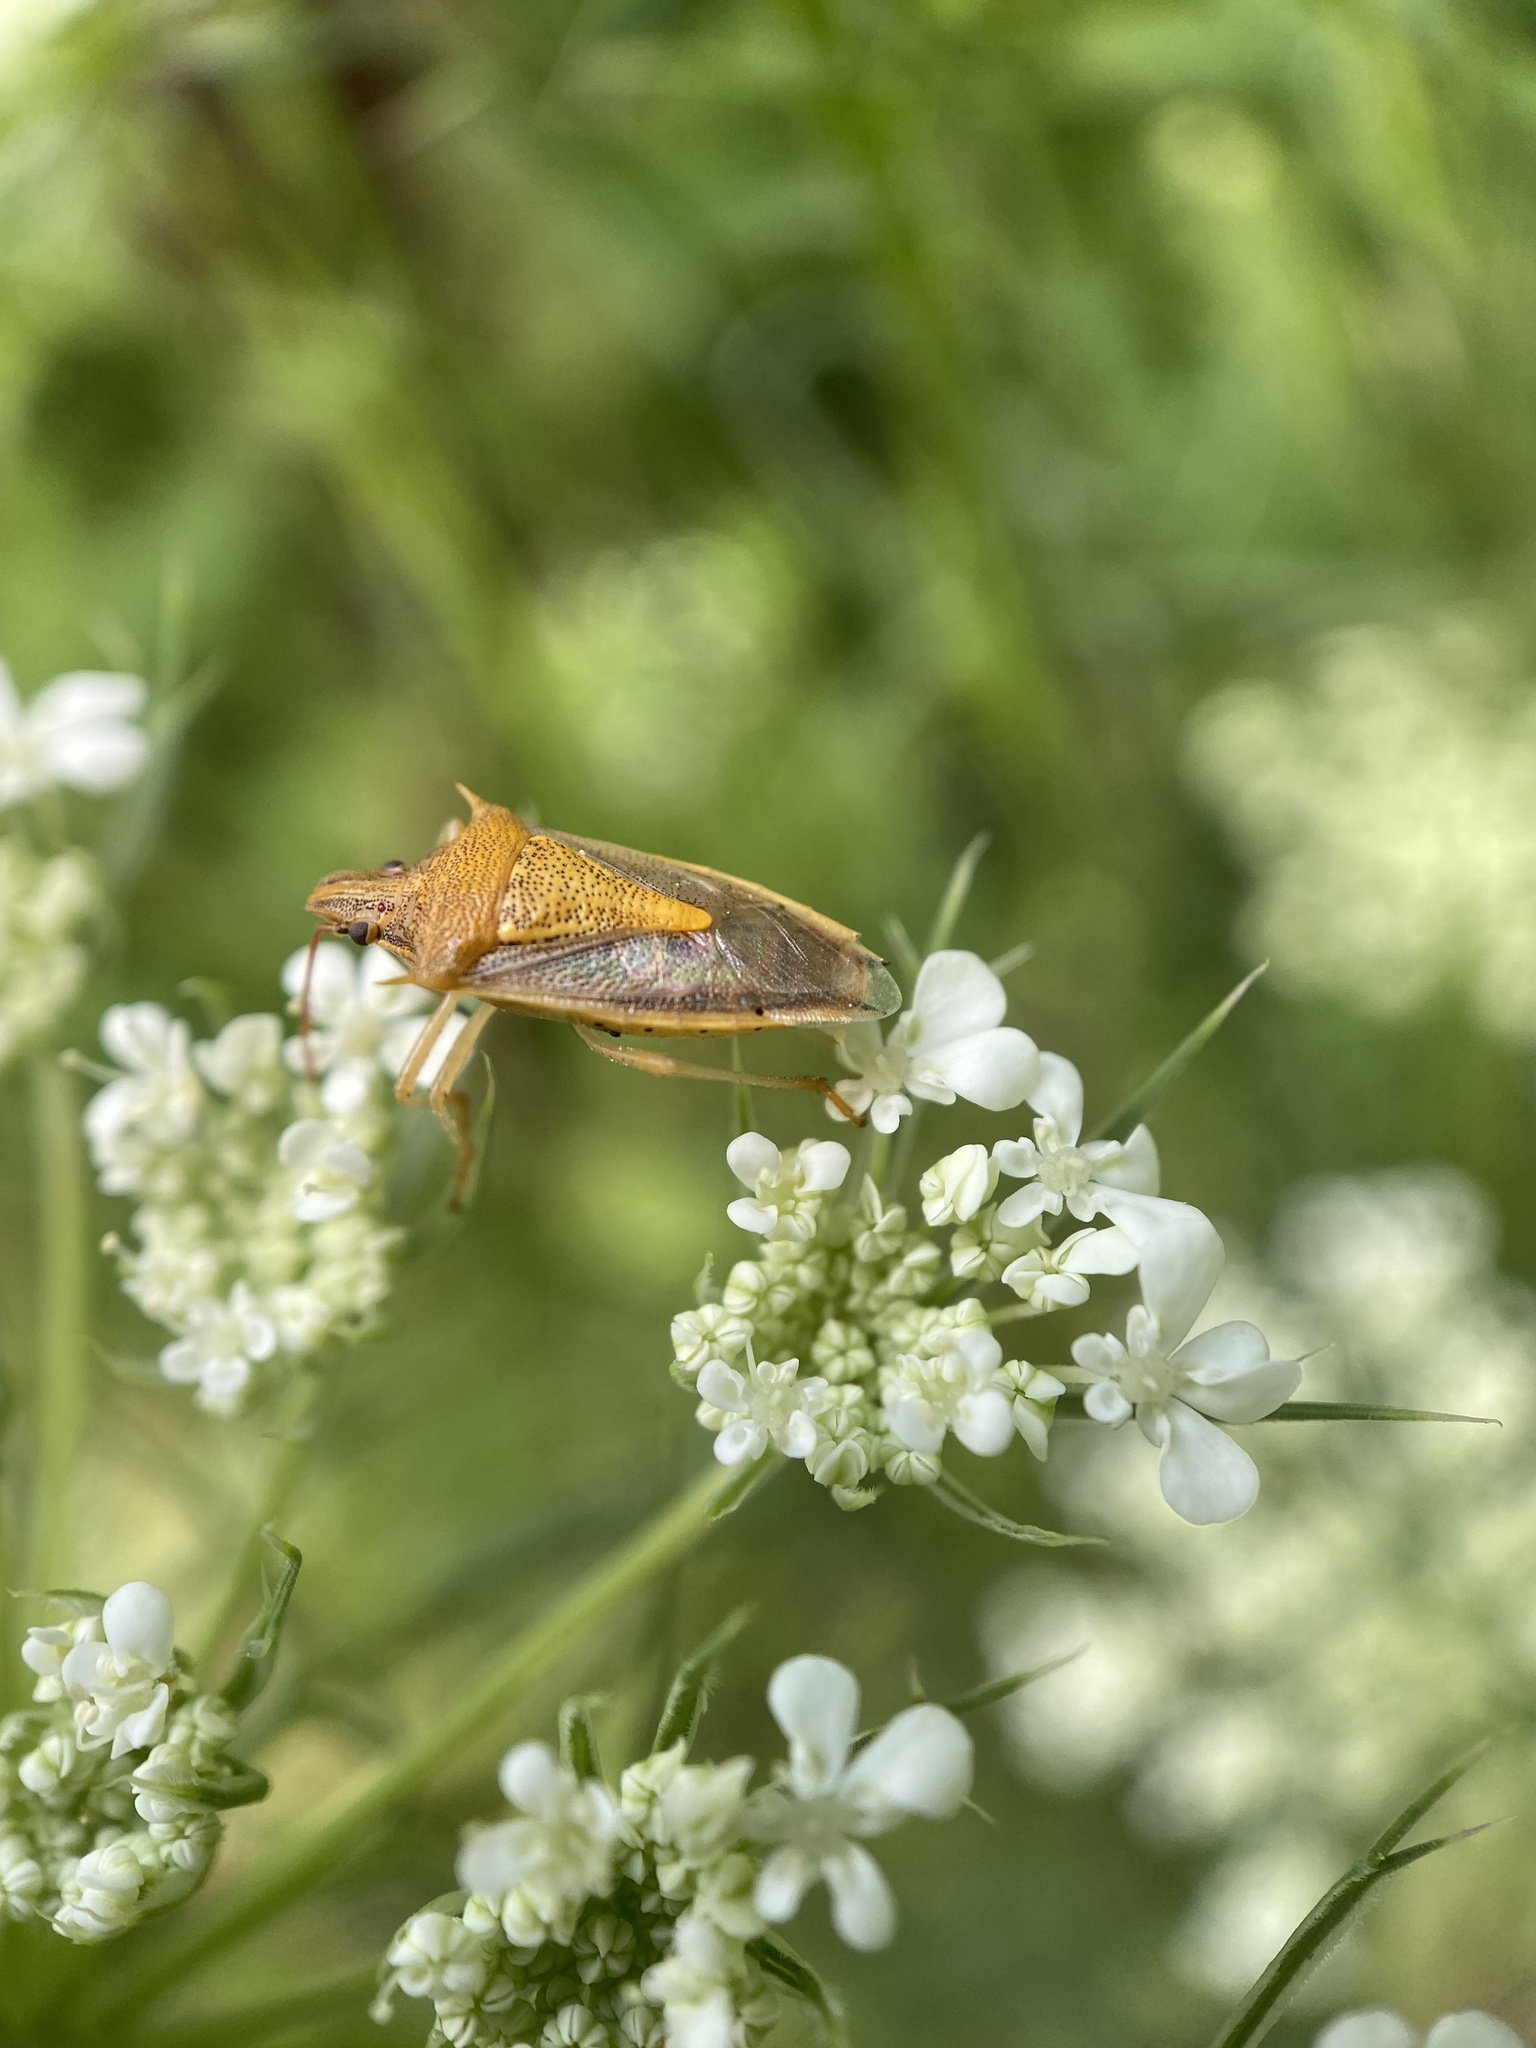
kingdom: Animalia
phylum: Arthropoda
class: Insecta
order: Hemiptera
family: Pentatomidae
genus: Oebalus
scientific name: Oebalus pugnax
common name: Rice stink bug
